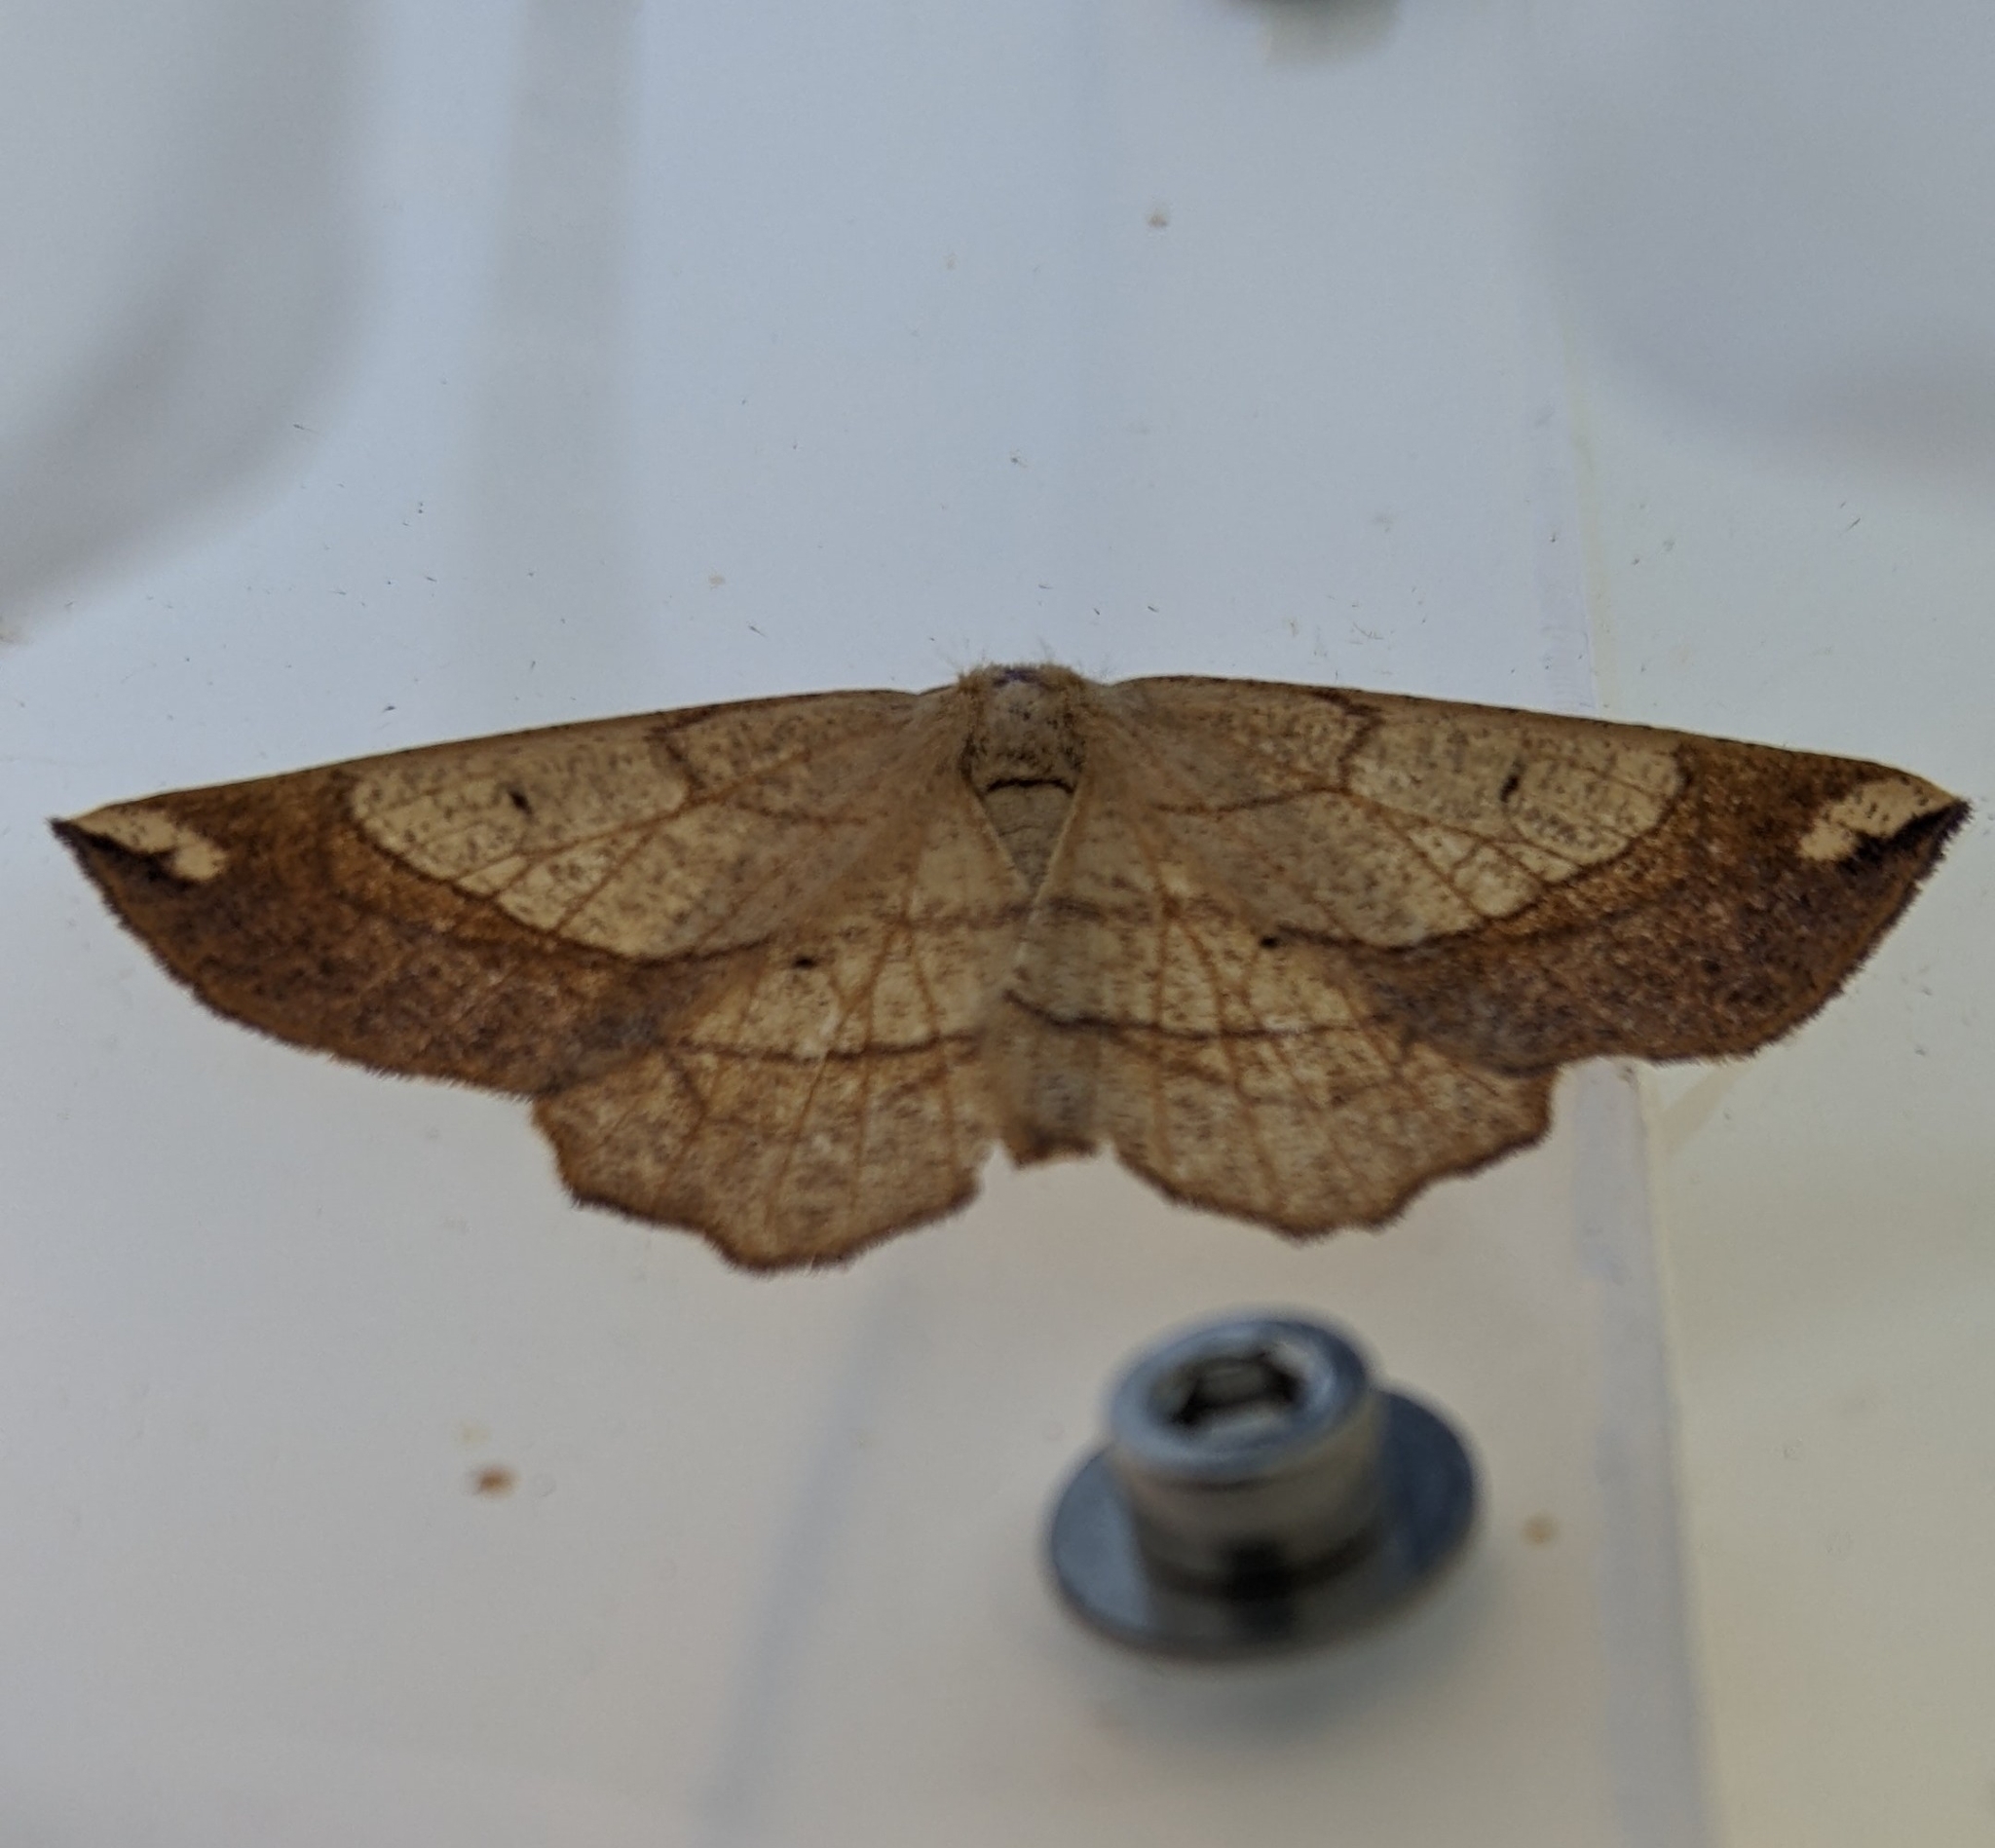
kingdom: Animalia
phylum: Arthropoda
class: Insecta
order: Lepidoptera
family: Geometridae
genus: Euchlaena
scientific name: Euchlaena madusaria
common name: Scrub euchlaena moth
